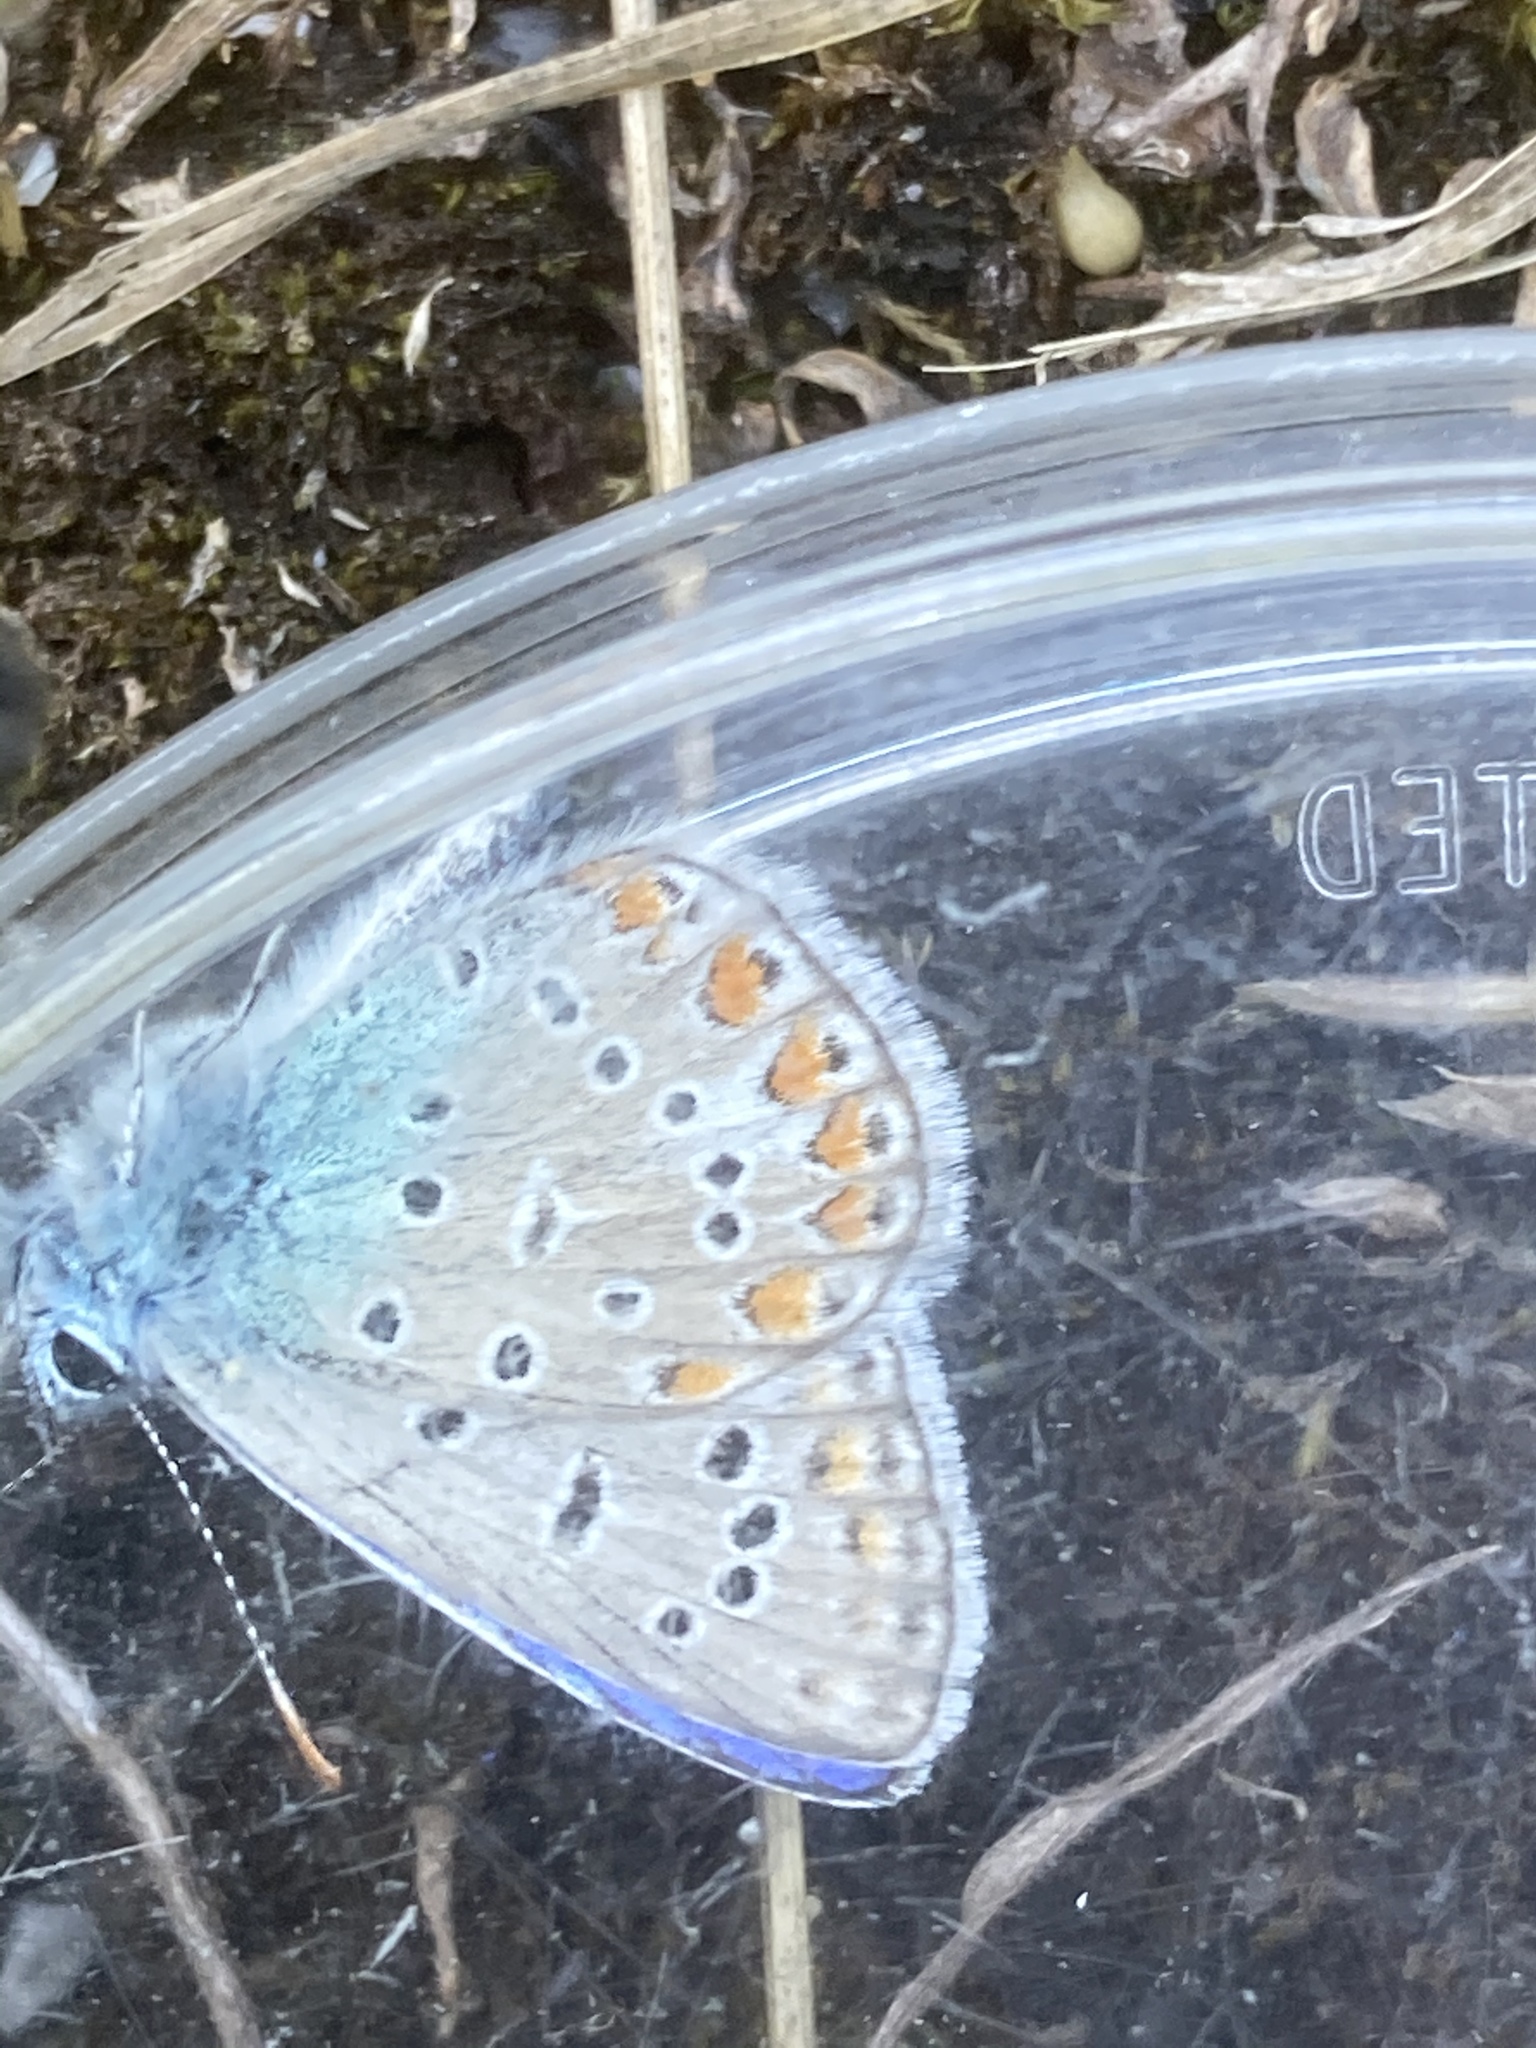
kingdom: Animalia
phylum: Arthropoda
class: Insecta
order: Lepidoptera
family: Lycaenidae
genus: Polyommatus
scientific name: Polyommatus icarus
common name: Common blue
